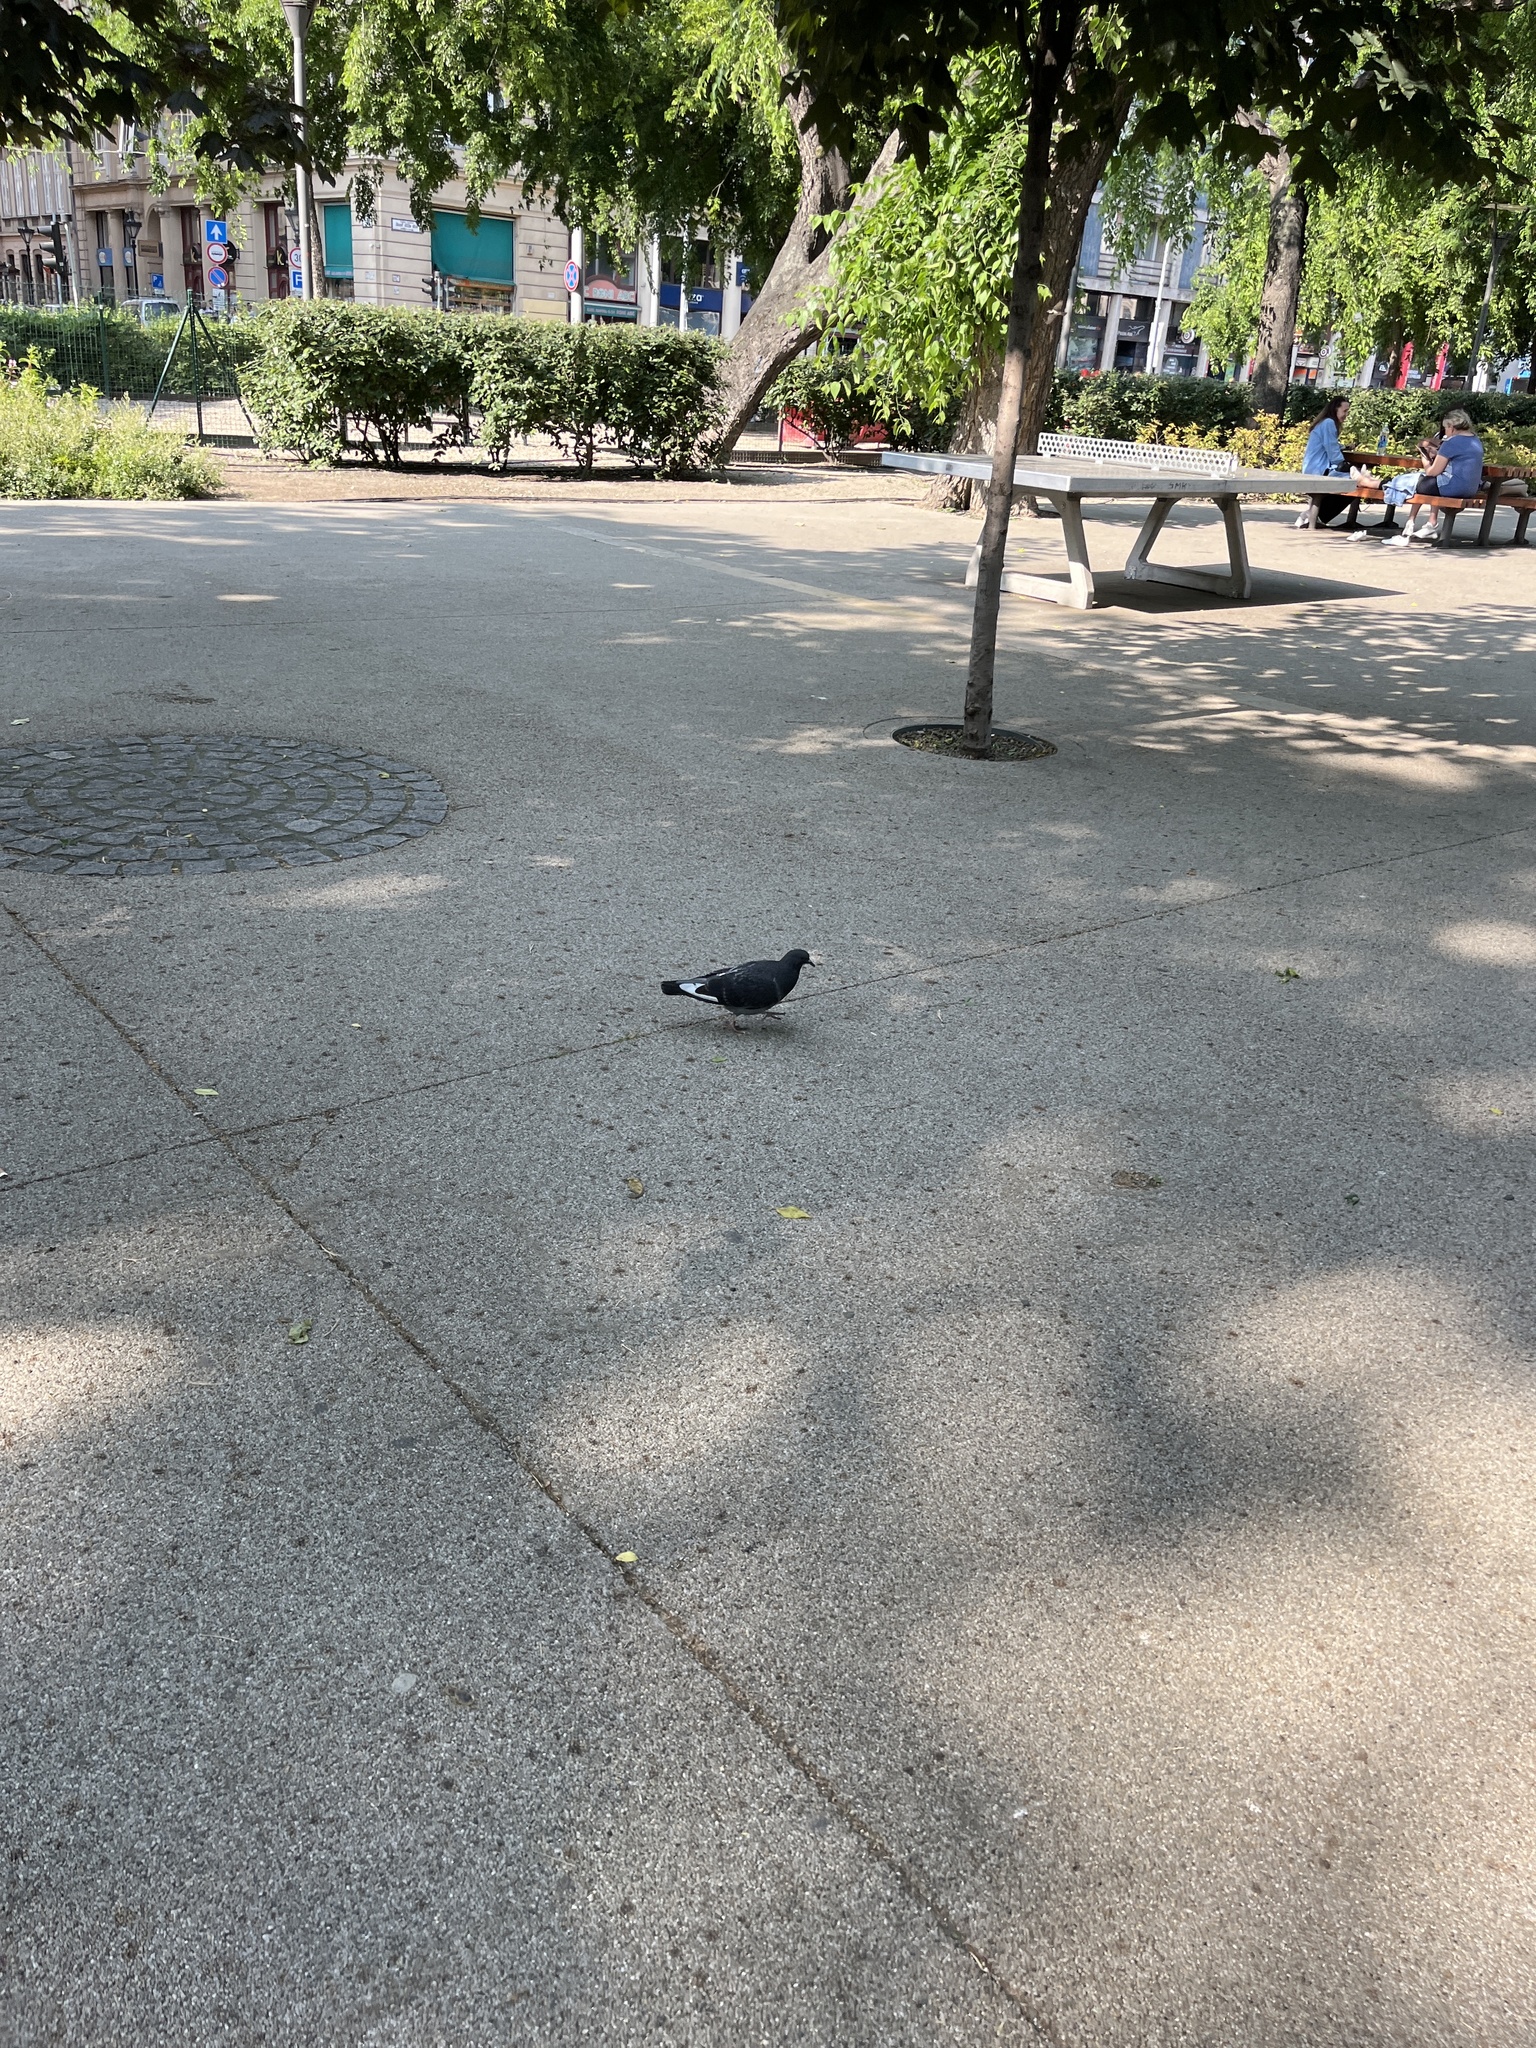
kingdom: Animalia
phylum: Chordata
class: Aves
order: Columbiformes
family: Columbidae
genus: Columba
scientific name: Columba livia
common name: Rock pigeon
